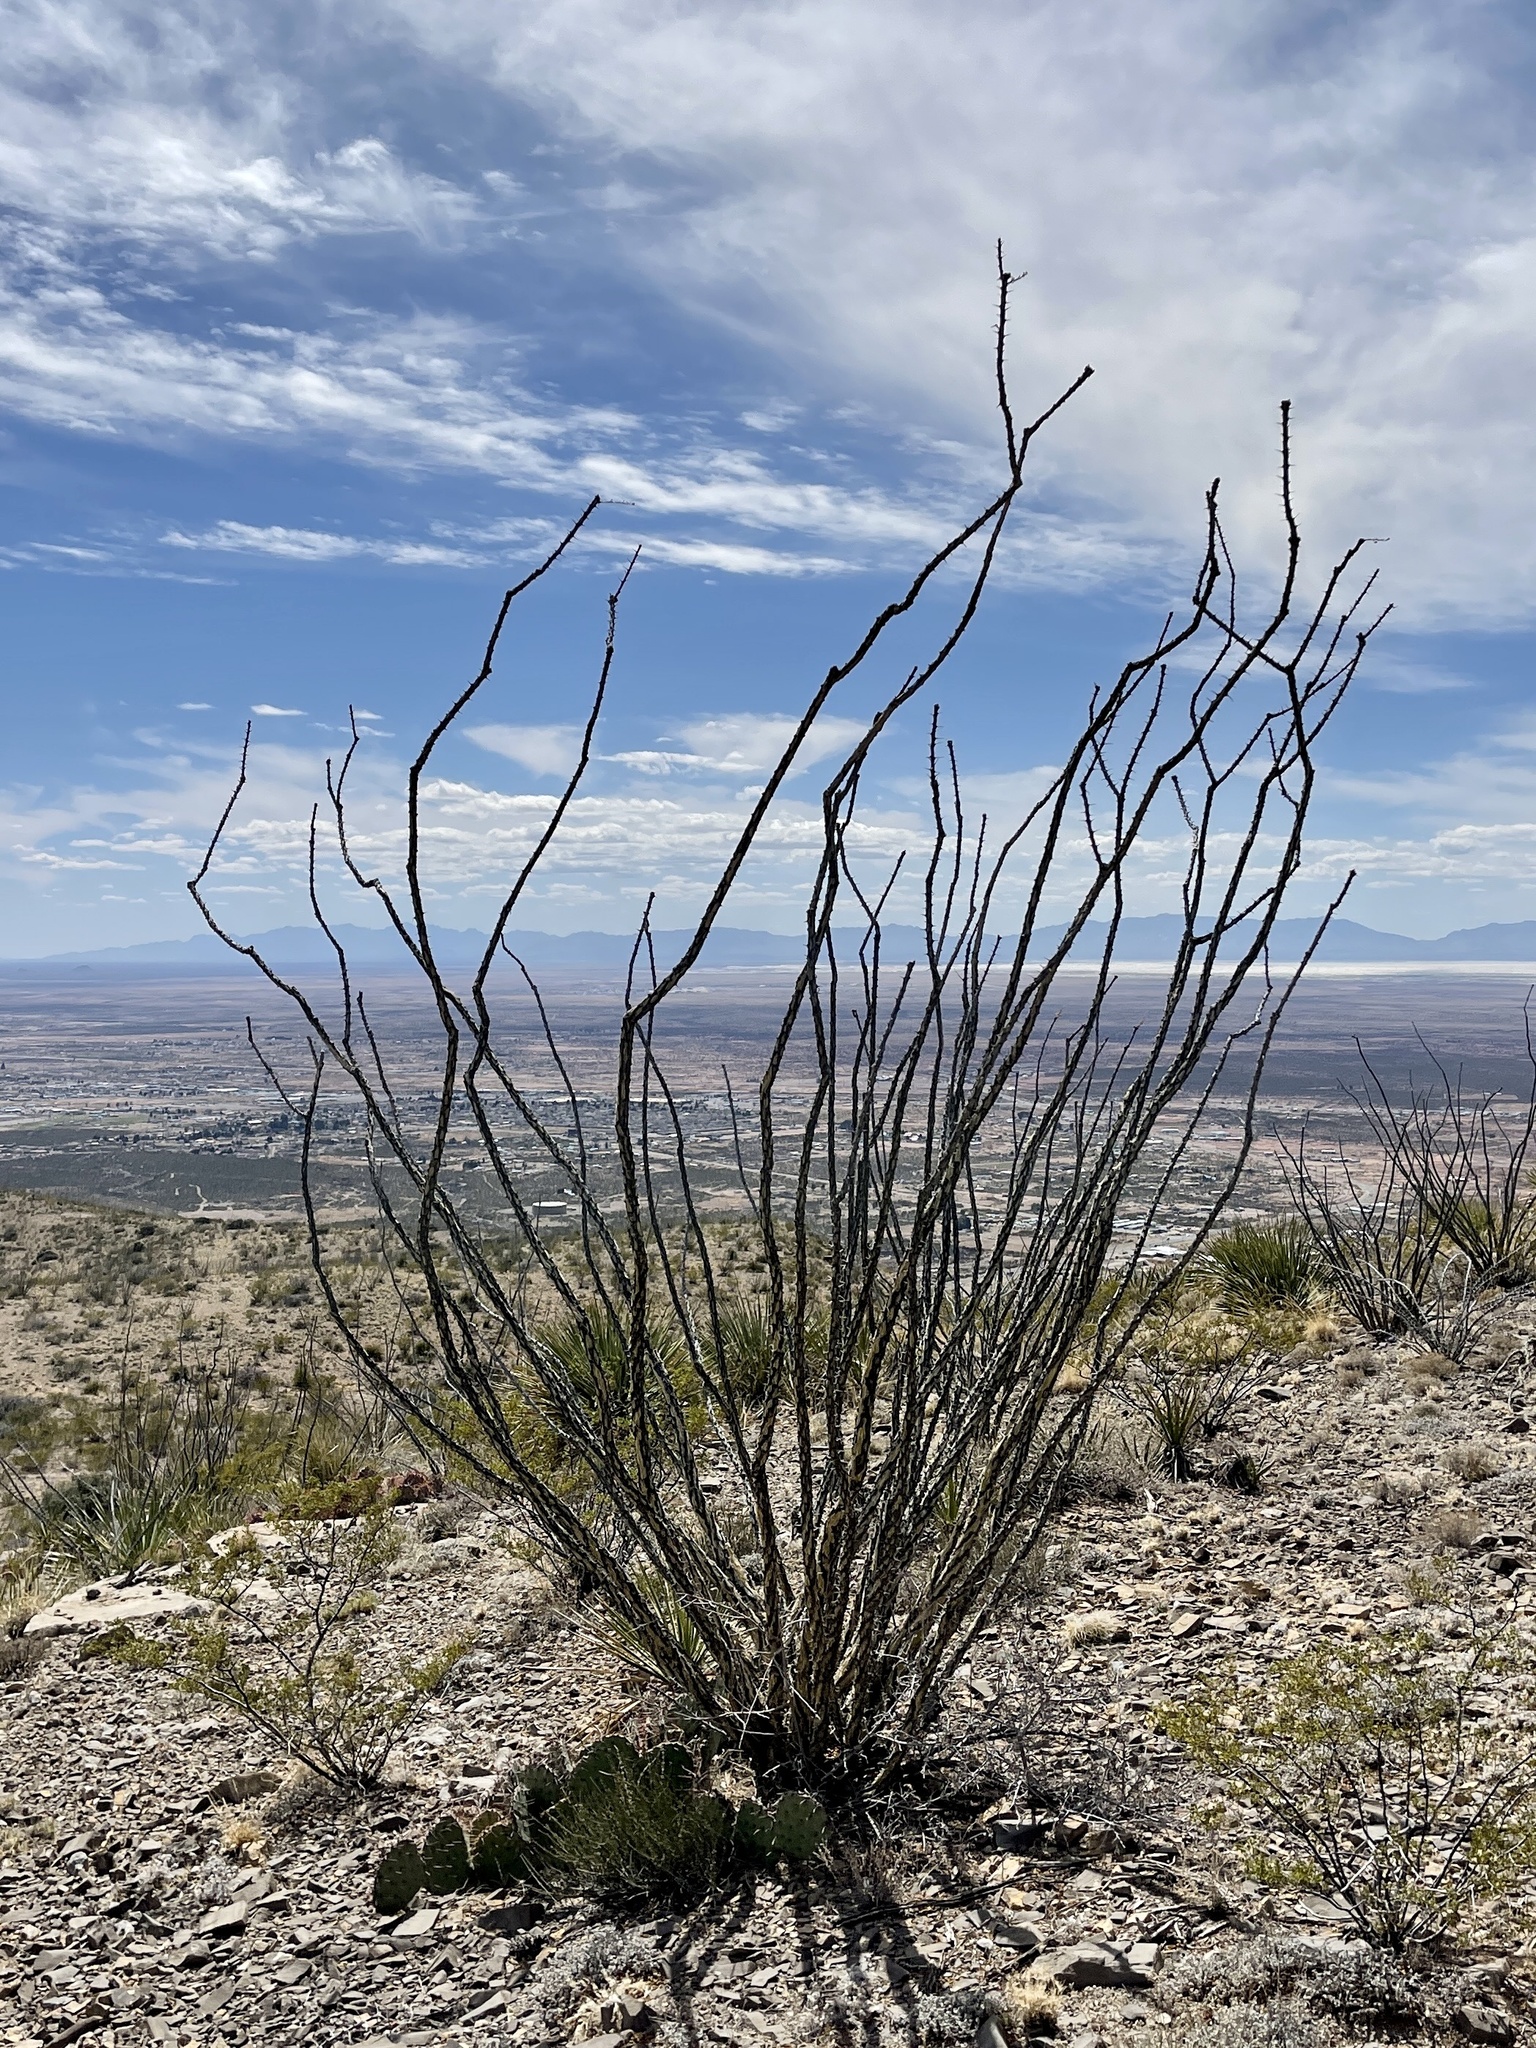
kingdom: Plantae
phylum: Tracheophyta
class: Magnoliopsida
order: Ericales
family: Fouquieriaceae
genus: Fouquieria
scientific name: Fouquieria splendens
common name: Vine-cactus
